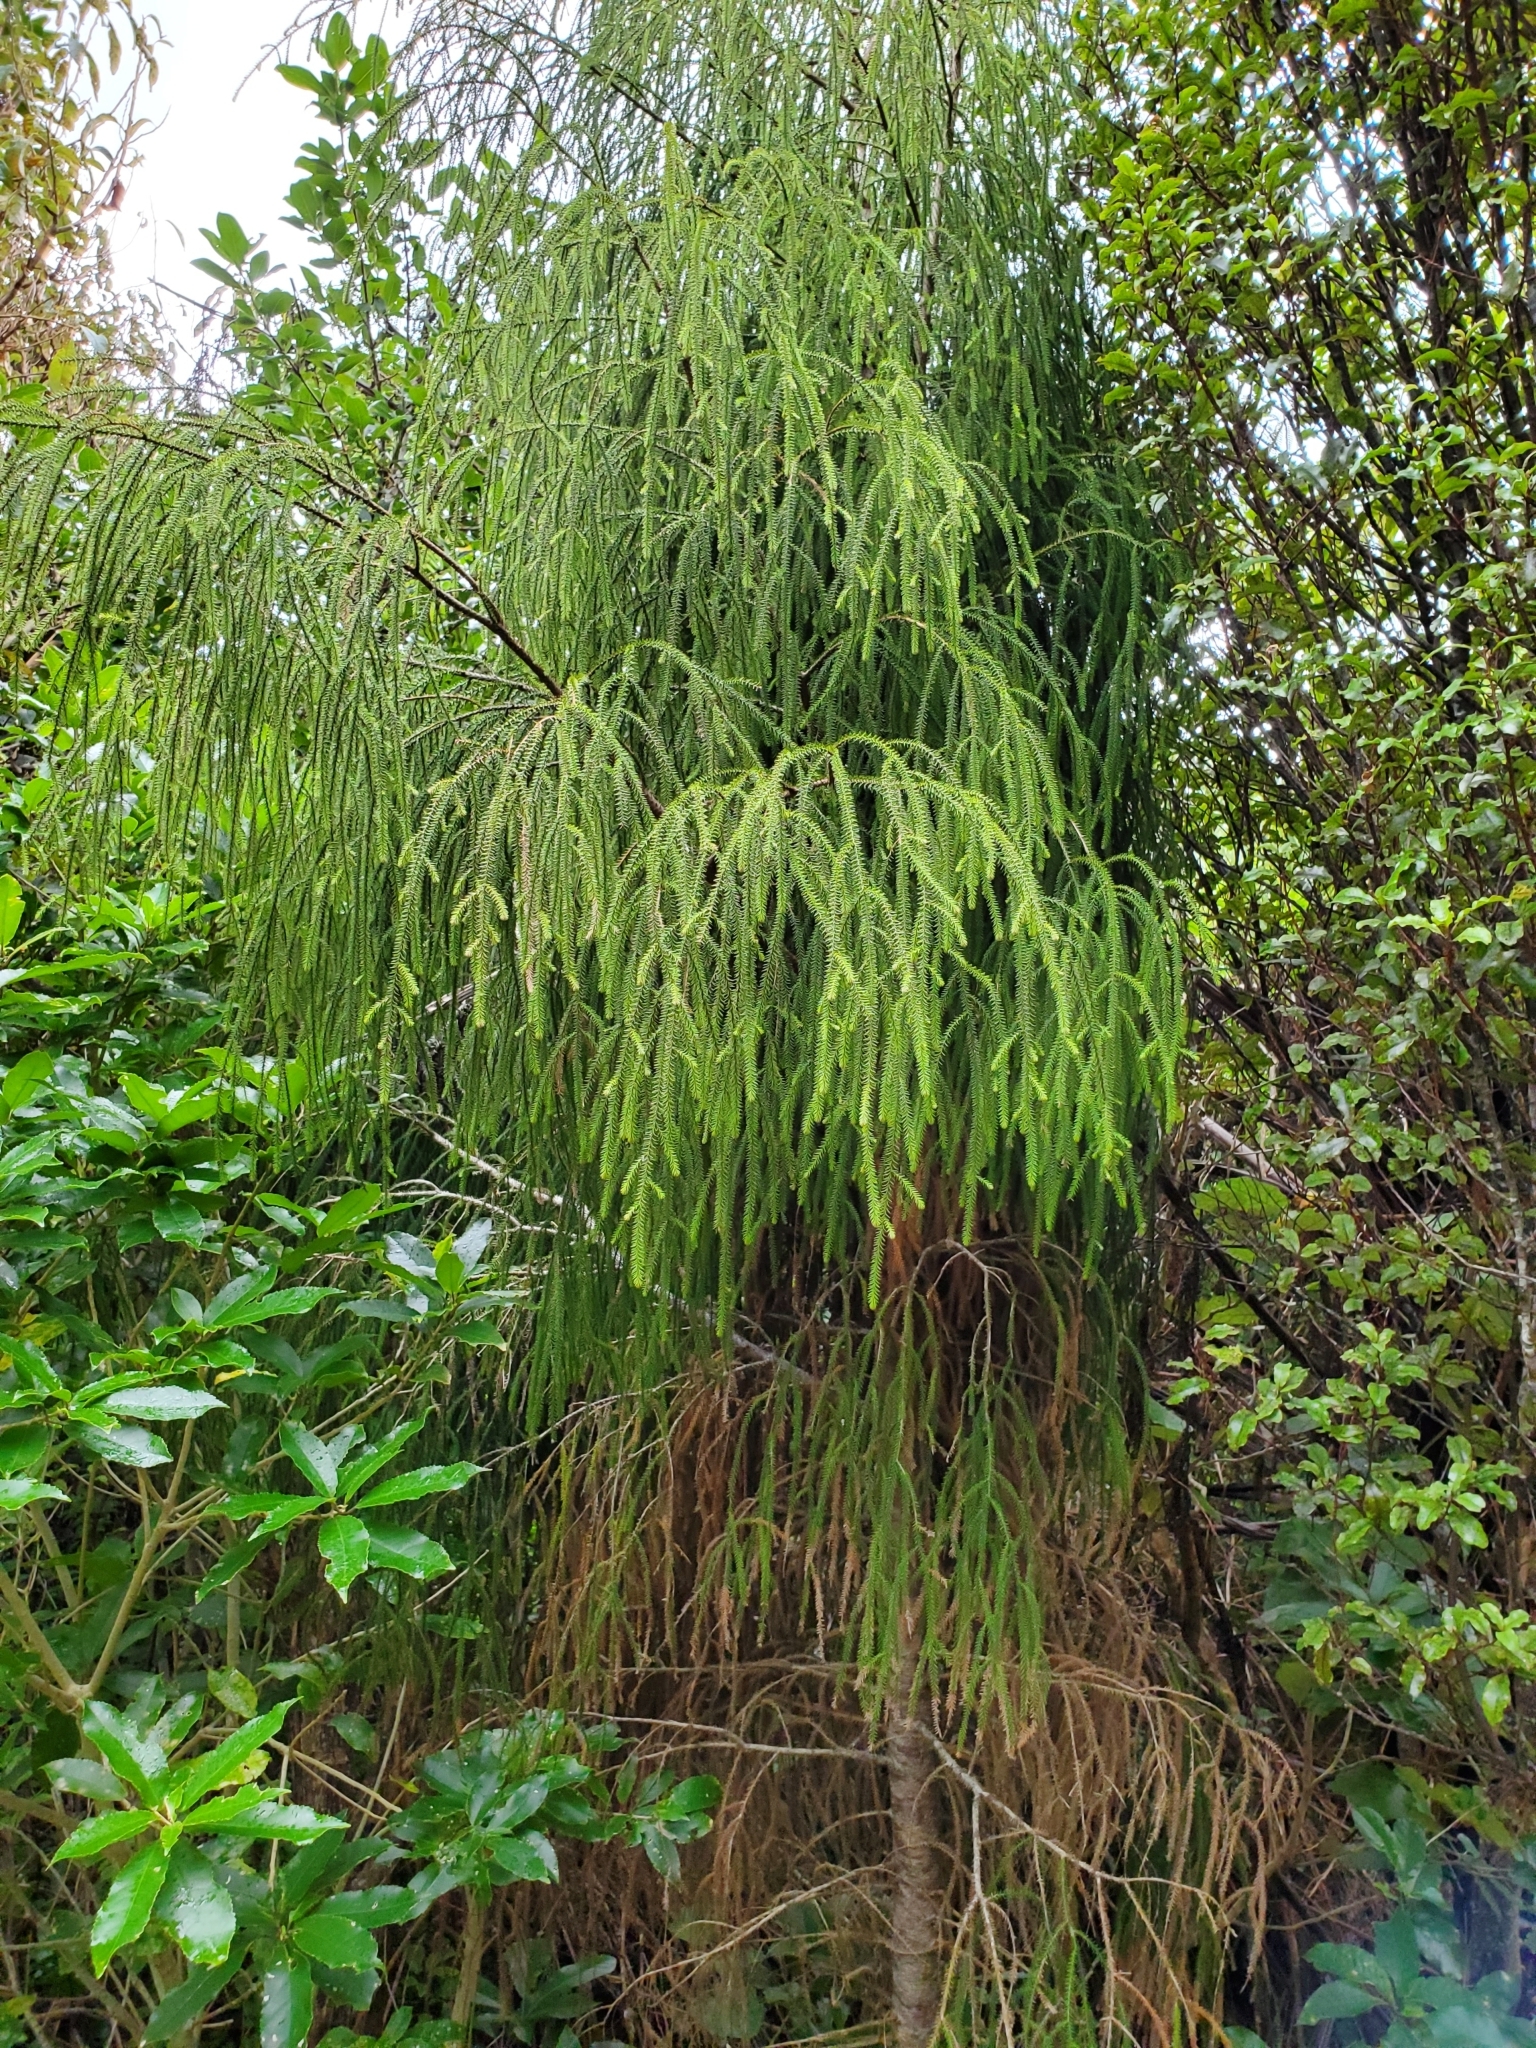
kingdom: Plantae
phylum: Tracheophyta
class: Pinopsida
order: Pinales
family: Podocarpaceae
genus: Dacrydium
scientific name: Dacrydium cupressinum
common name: Red pine
